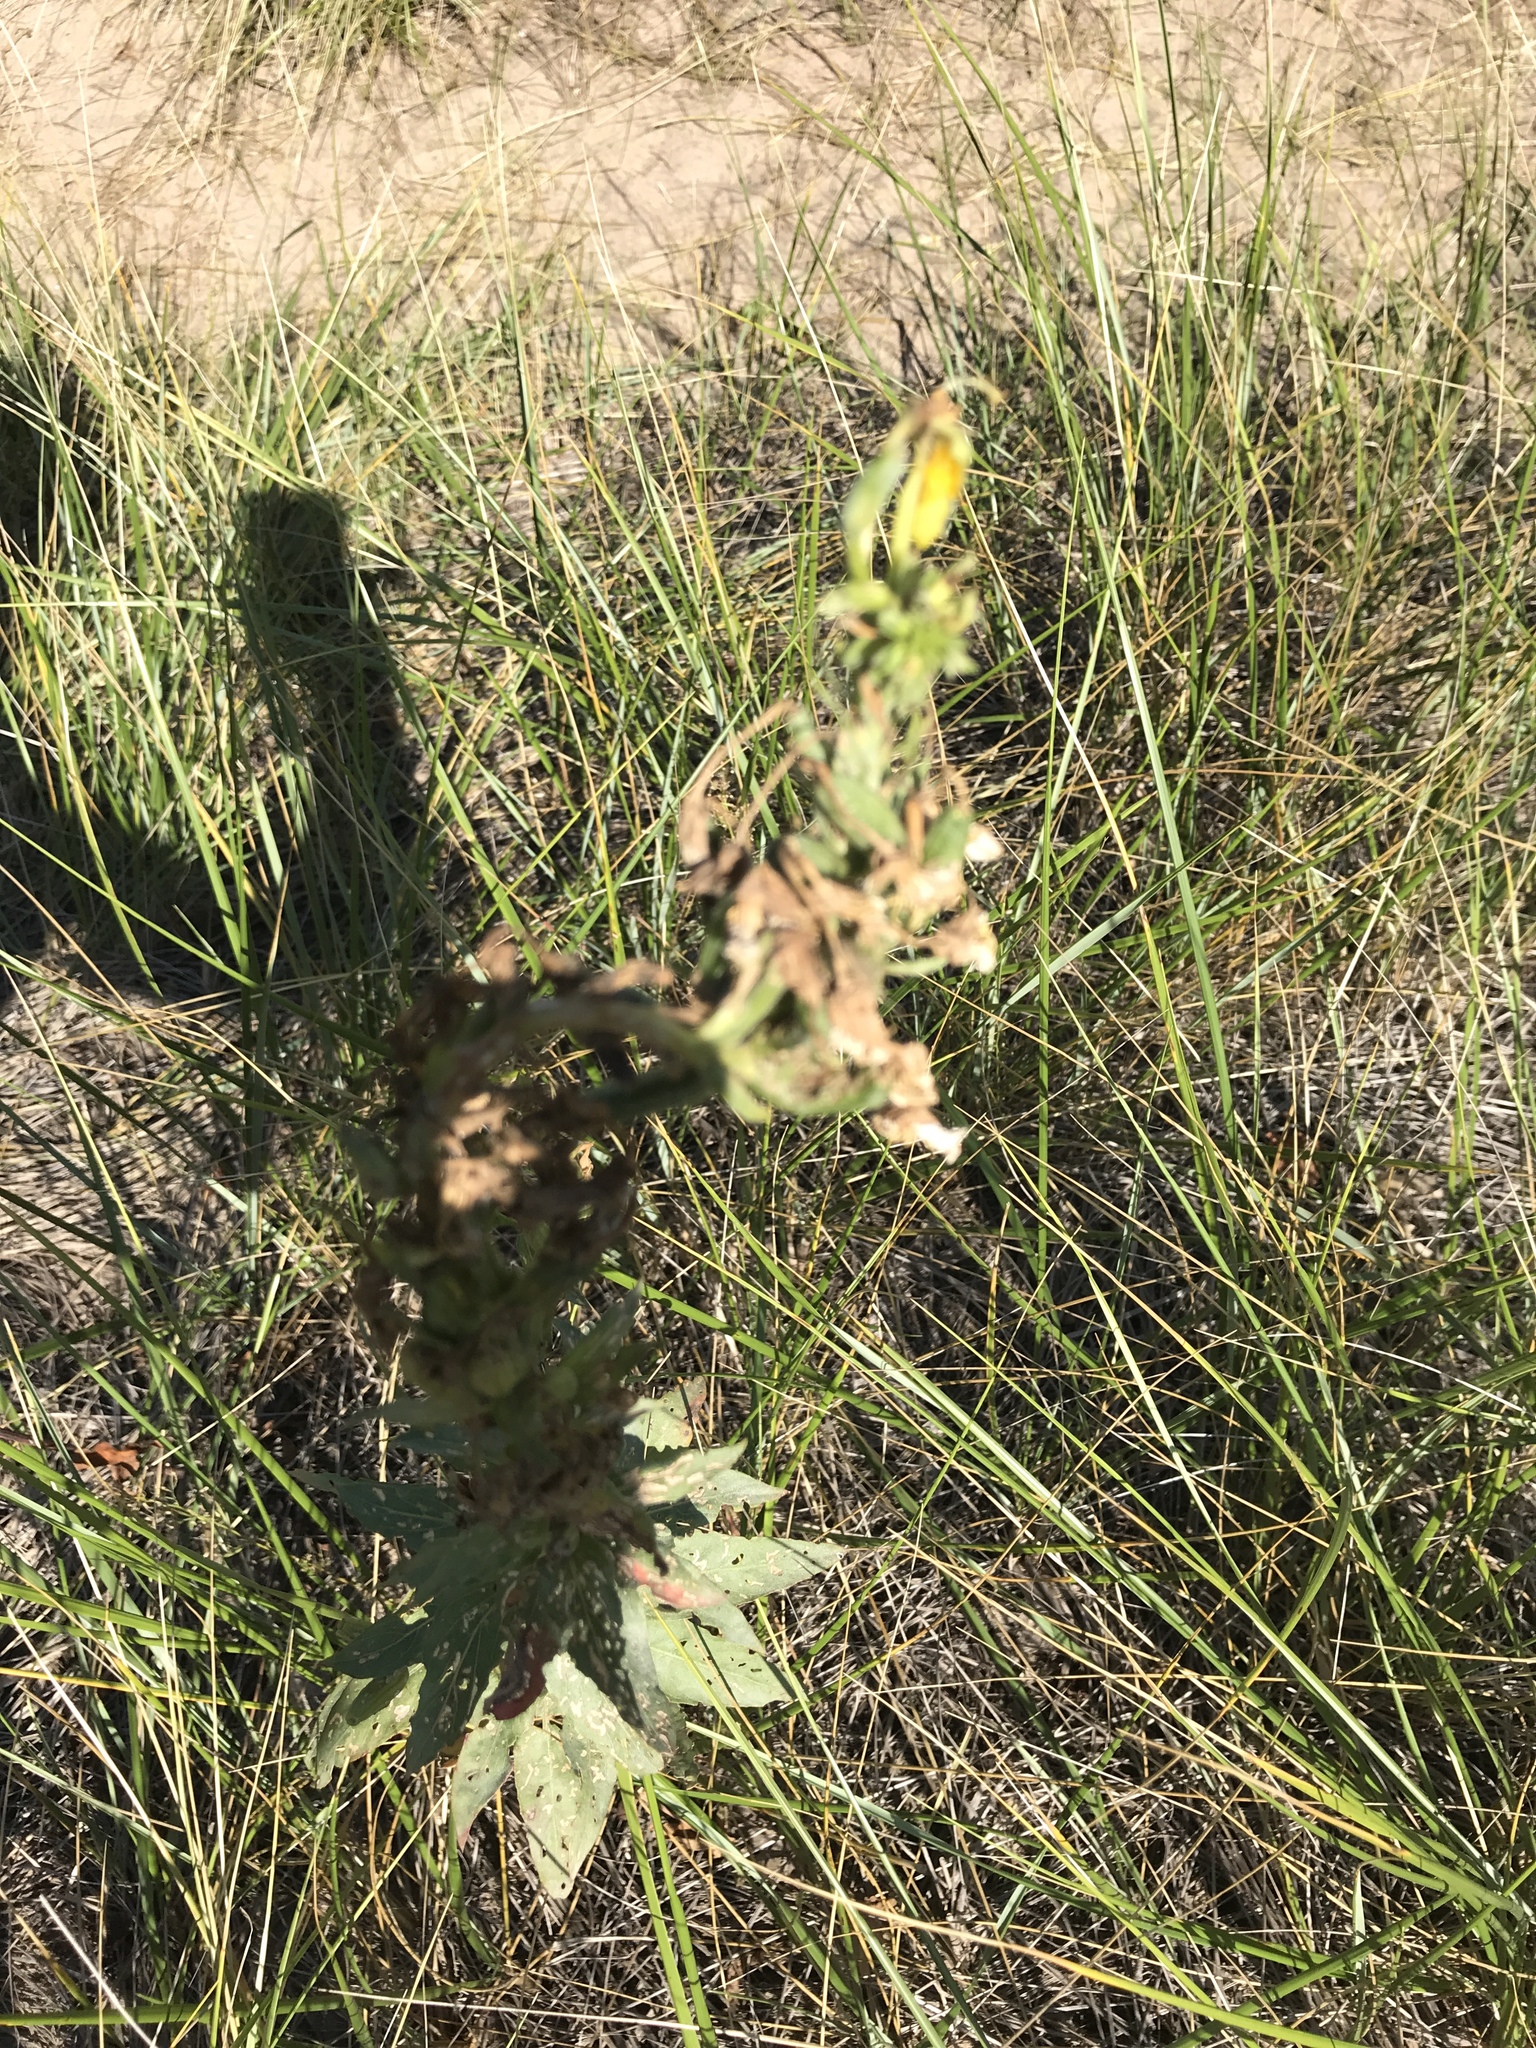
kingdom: Plantae
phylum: Tracheophyta
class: Magnoliopsida
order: Myrtales
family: Onagraceae
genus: Oenothera
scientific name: Oenothera biennis
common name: Common evening-primrose
